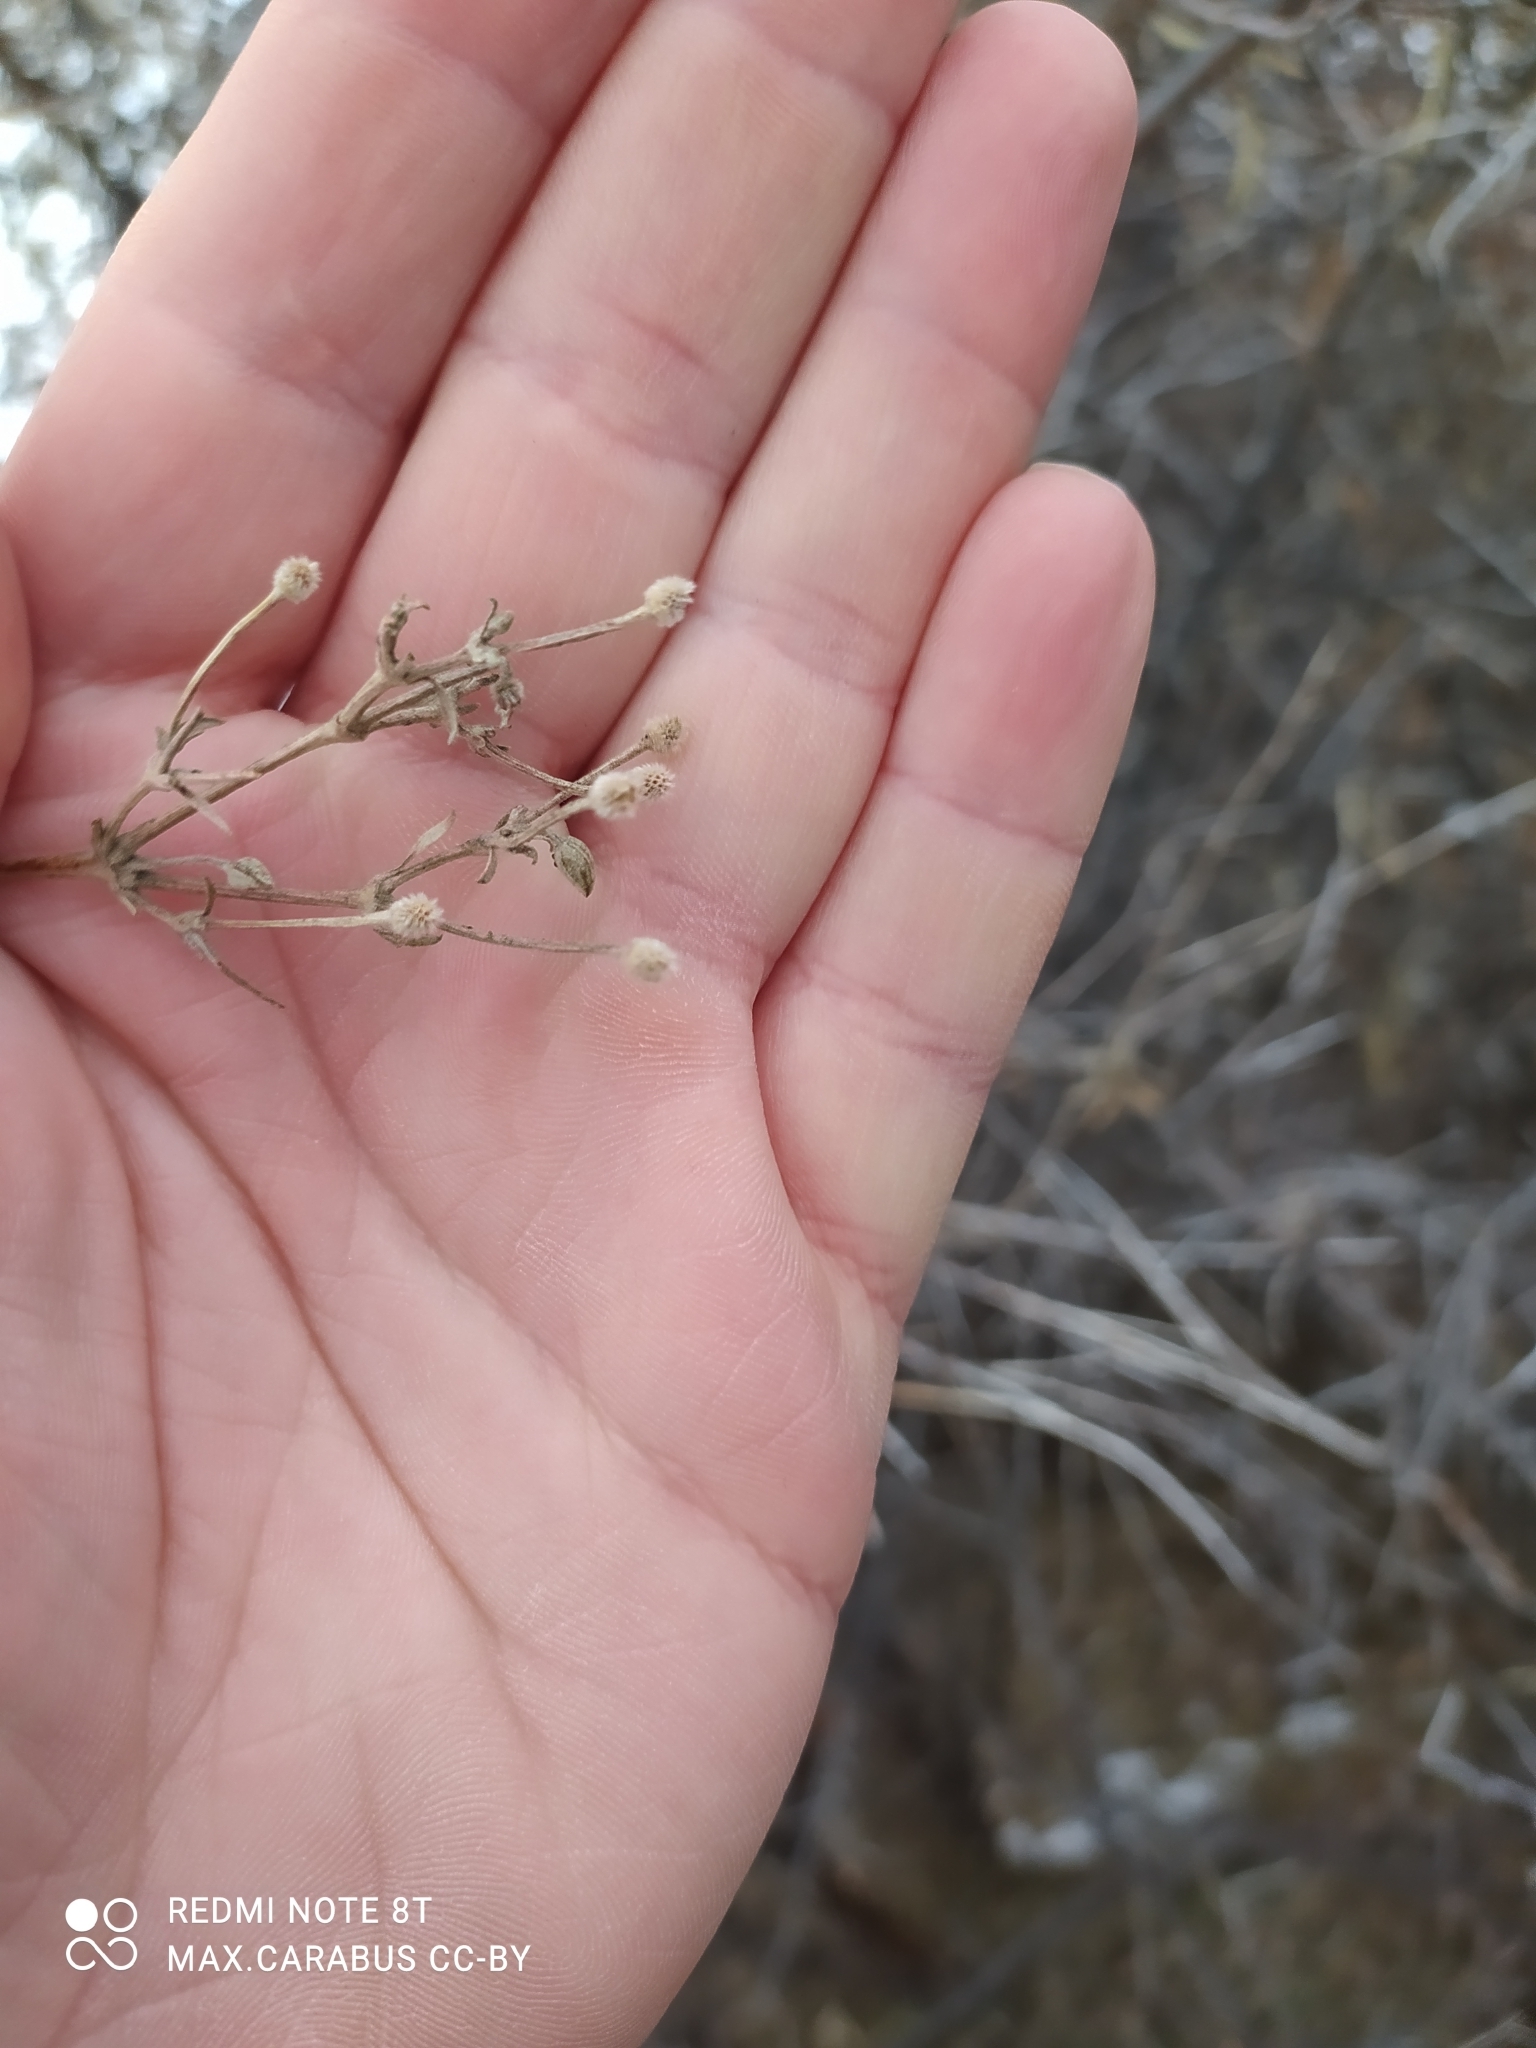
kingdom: Plantae
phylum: Tracheophyta
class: Magnoliopsida
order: Ranunculales
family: Ranunculaceae
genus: Clematis
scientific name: Clematis orientalis
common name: Oriental virgin's-bower
